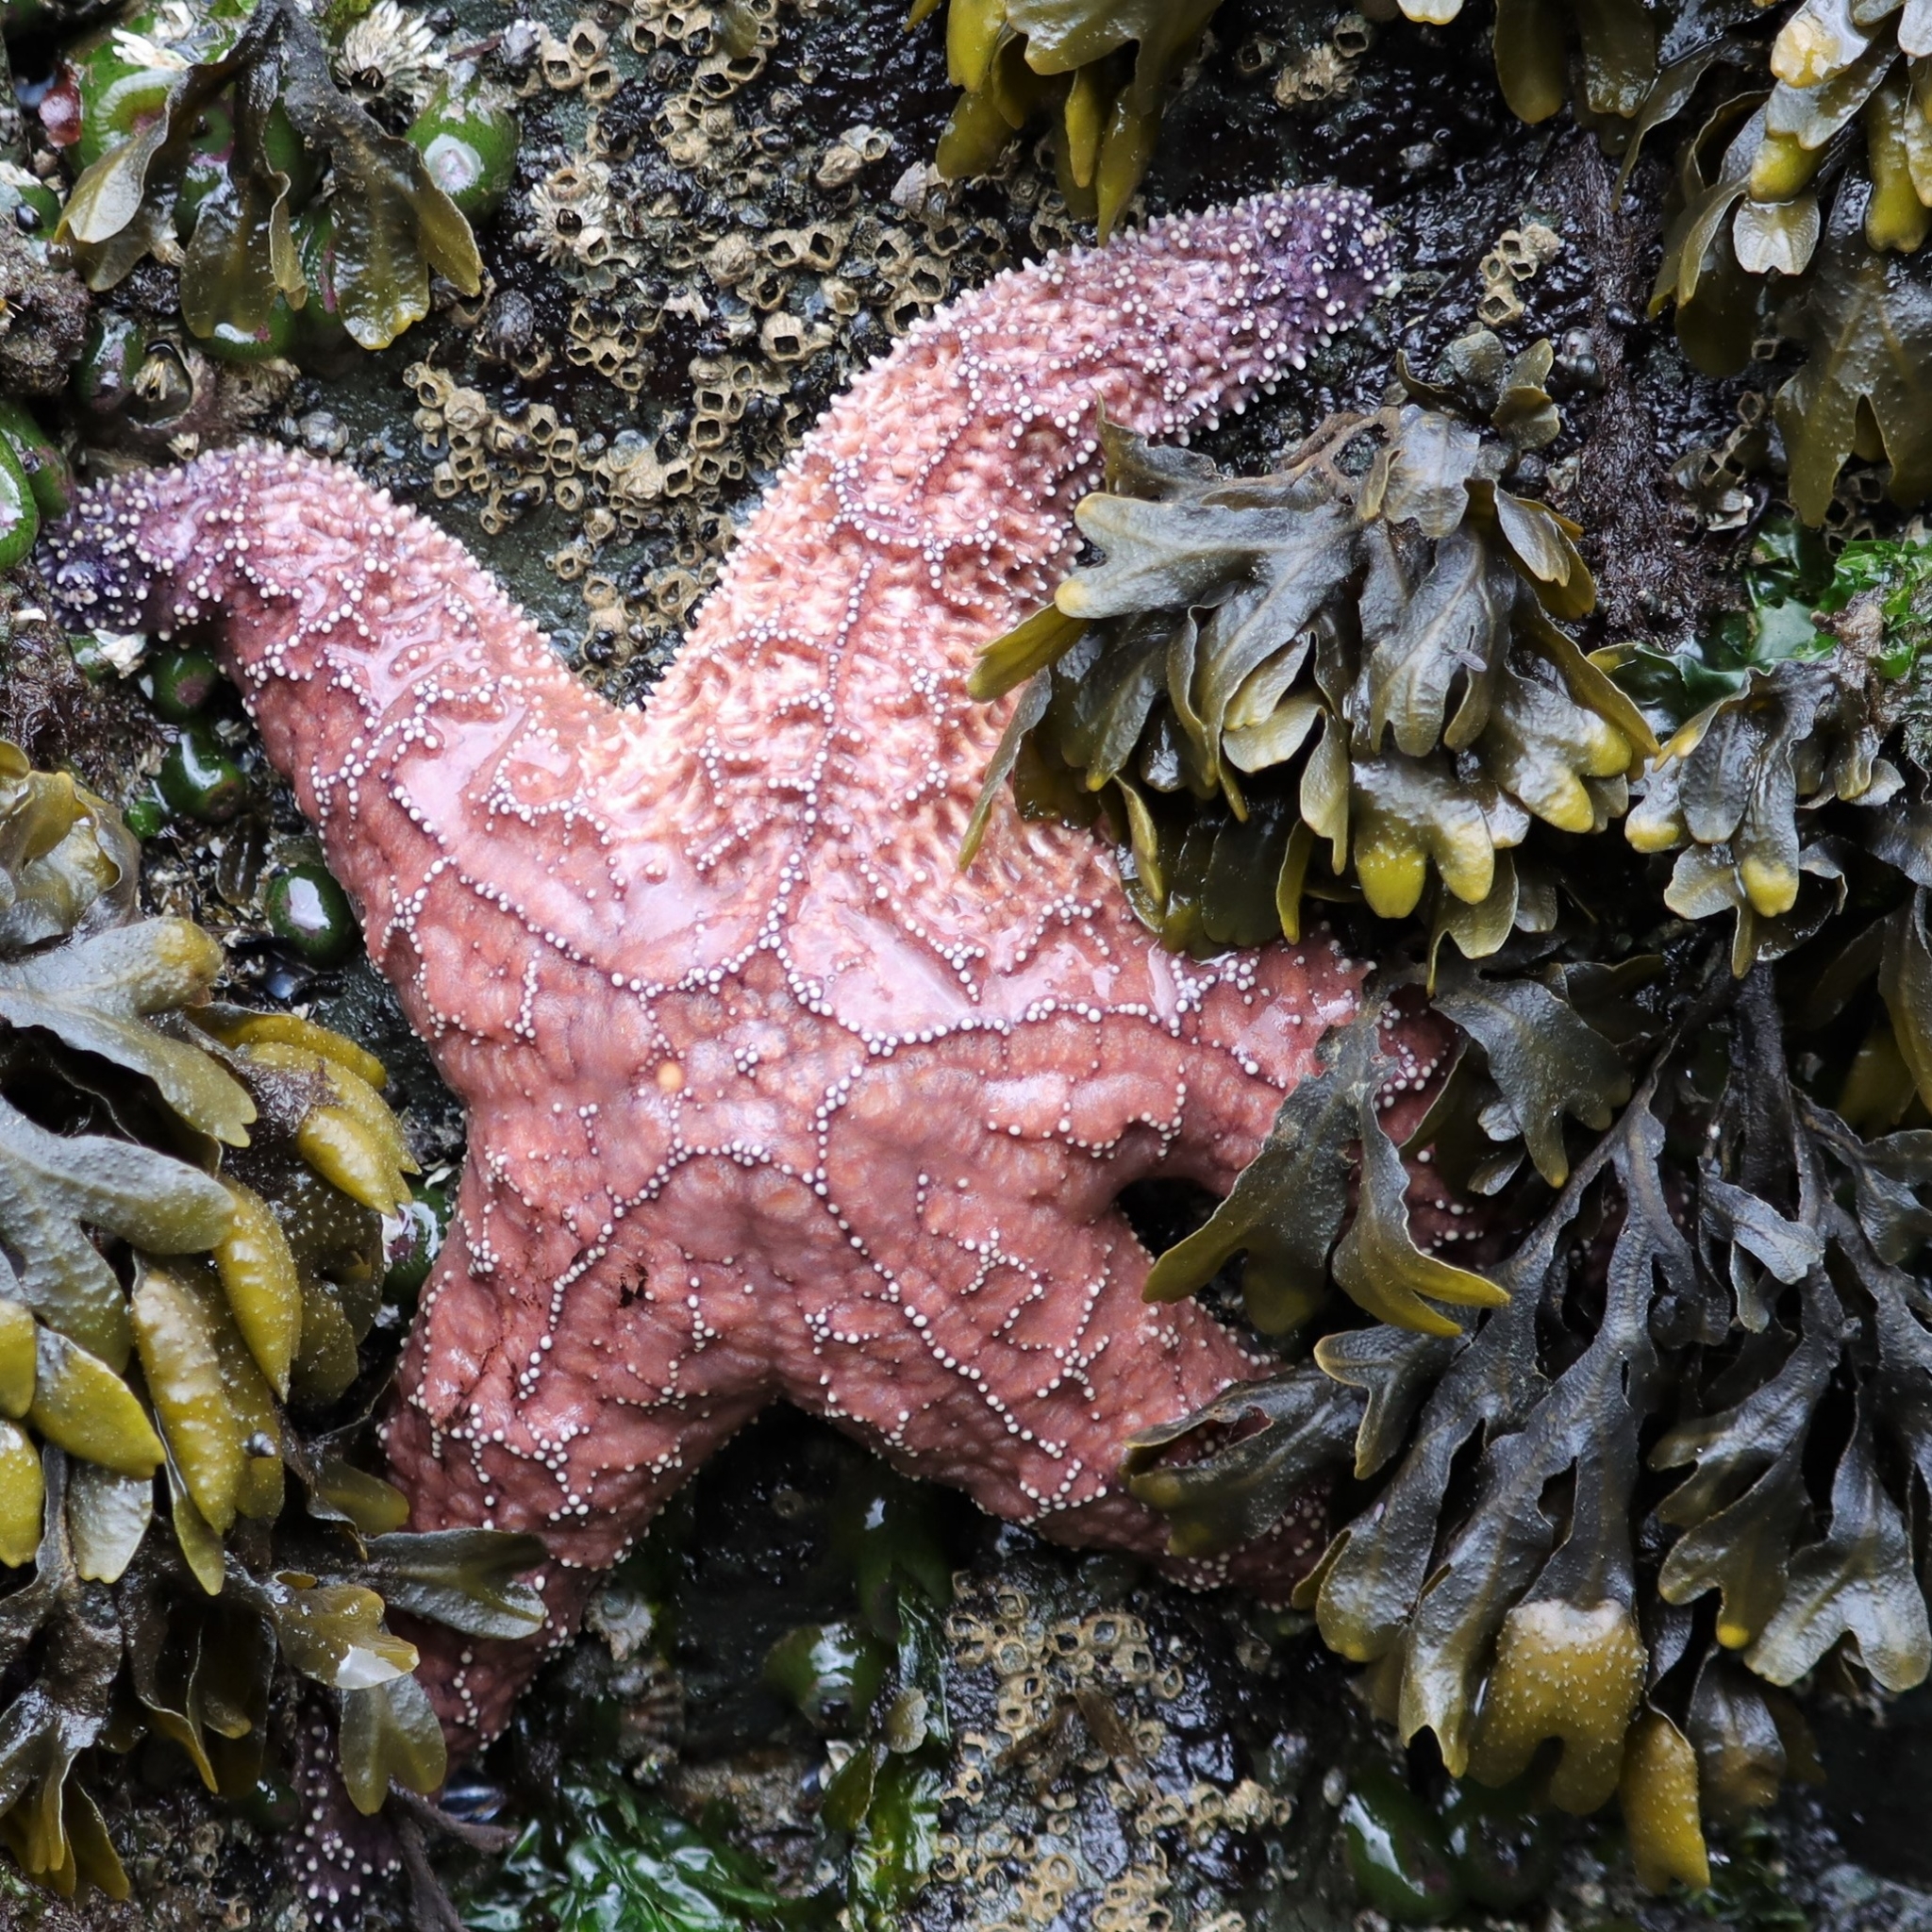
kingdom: Animalia
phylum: Echinodermata
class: Asteroidea
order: Forcipulatida
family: Asteriidae
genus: Pisaster
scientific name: Pisaster ochraceus
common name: Ochre stars
